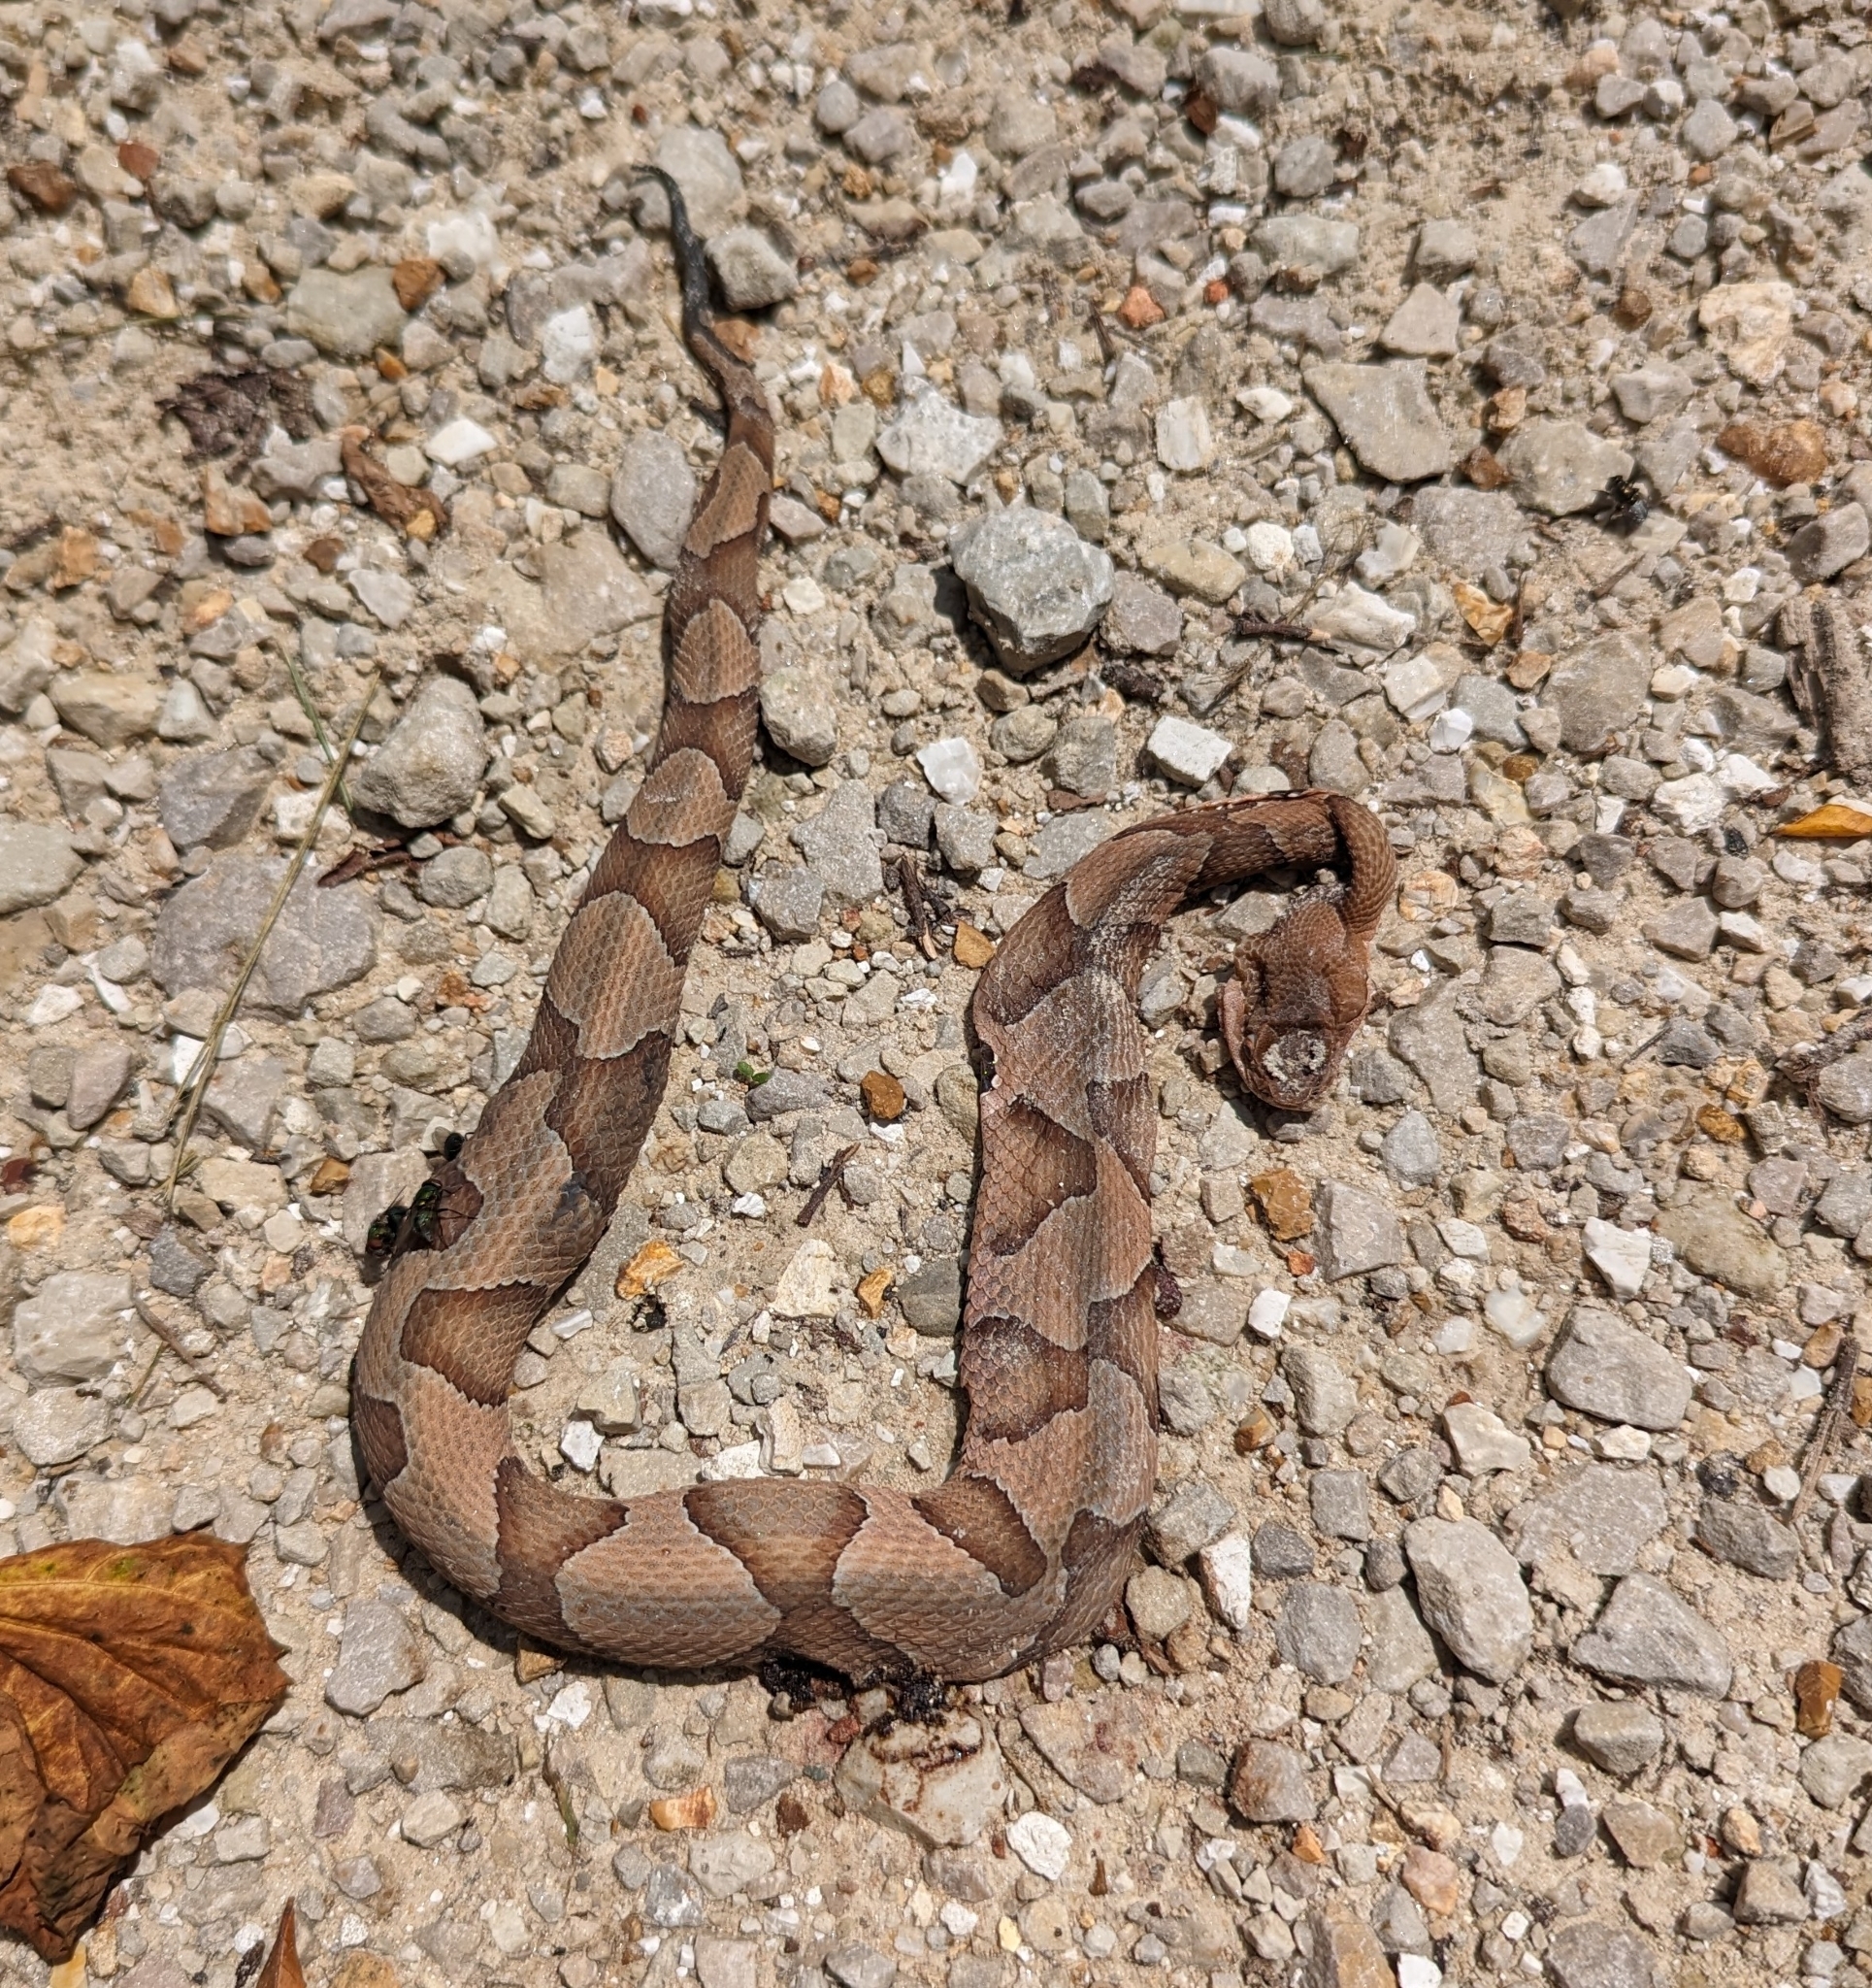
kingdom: Animalia
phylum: Chordata
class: Squamata
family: Viperidae
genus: Agkistrodon
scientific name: Agkistrodon contortrix
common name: Northern copperhead
